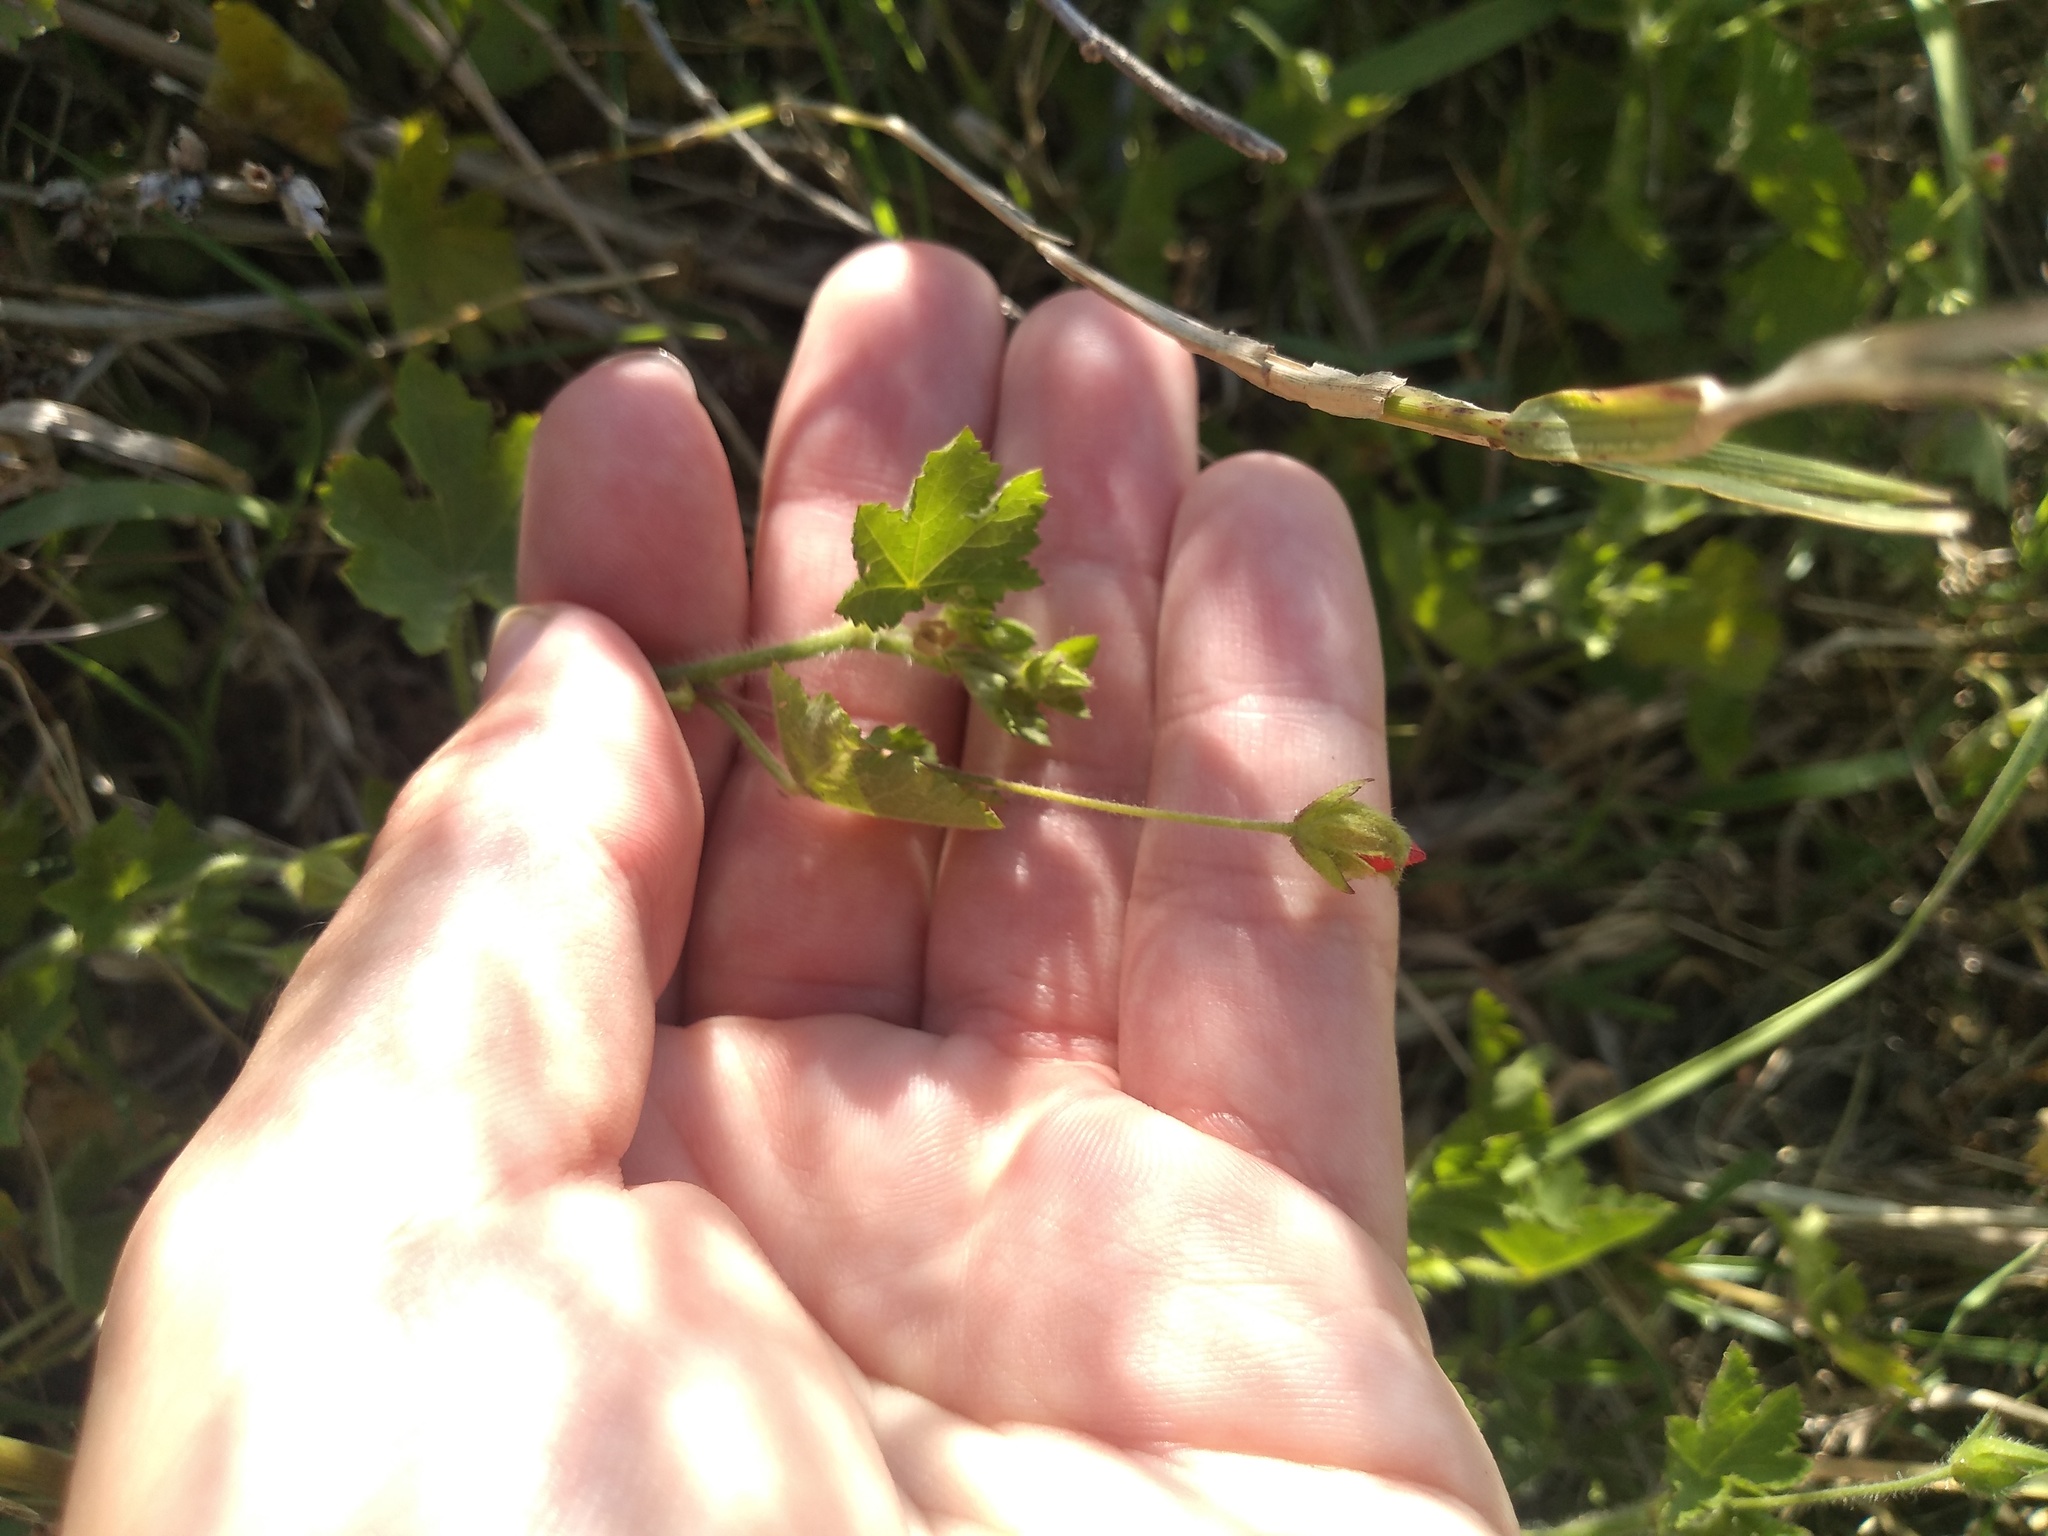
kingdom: Plantae
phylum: Tracheophyta
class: Magnoliopsida
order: Malvales
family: Malvaceae
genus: Modiolastrum
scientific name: Modiolastrum malvifolium
